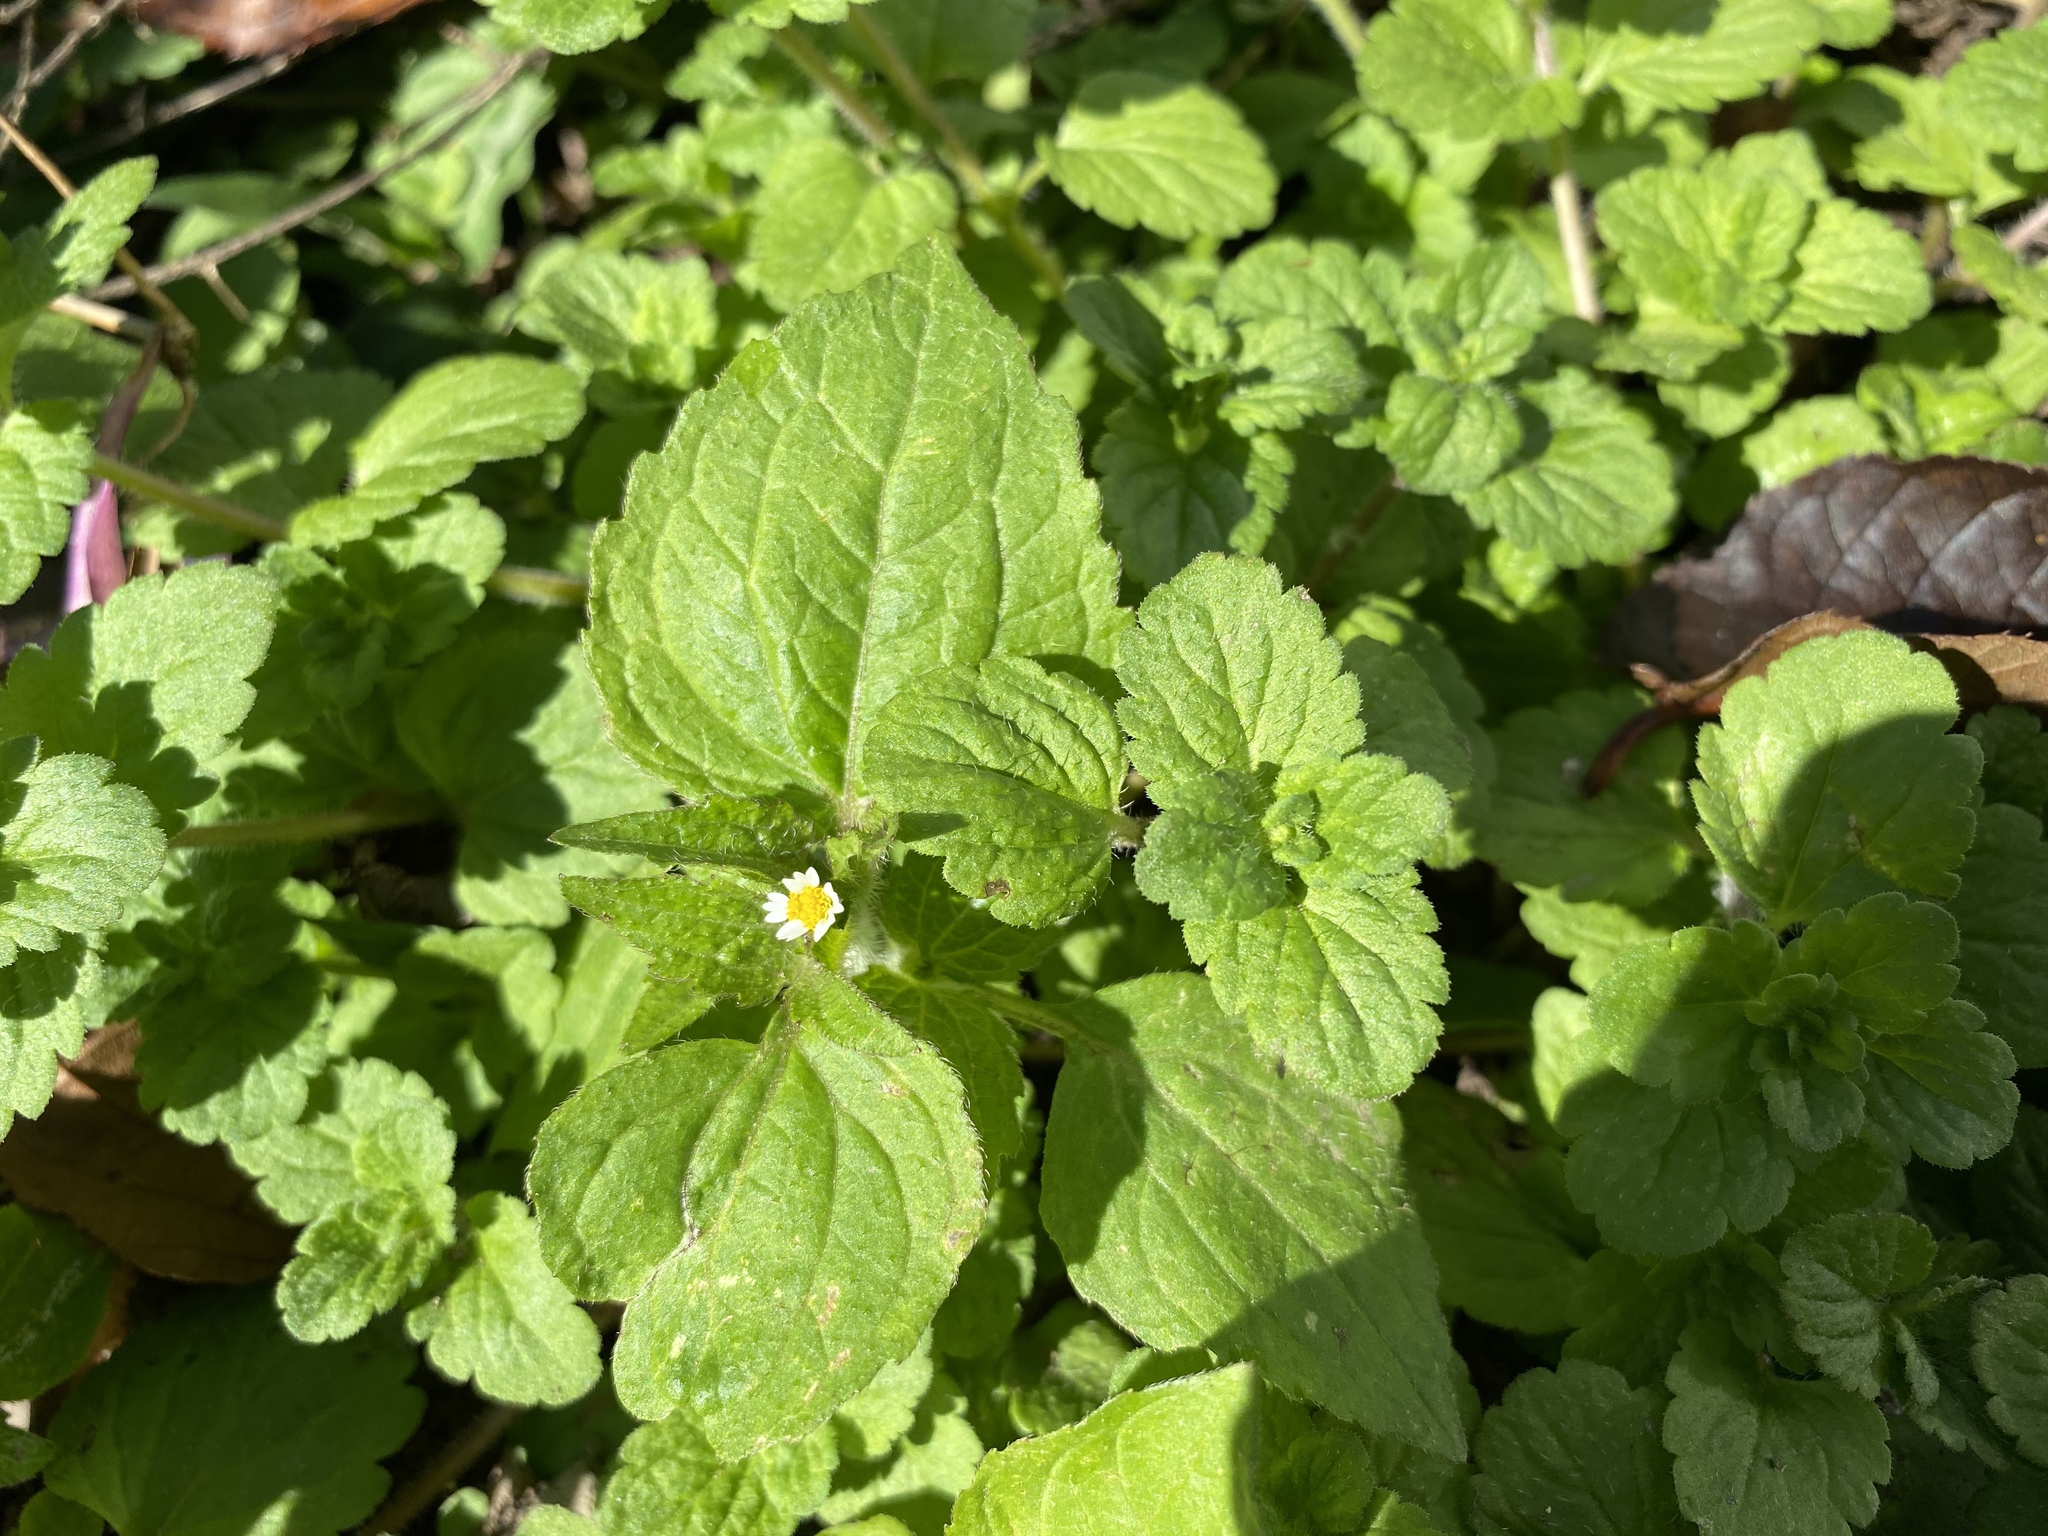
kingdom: Plantae
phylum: Tracheophyta
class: Magnoliopsida
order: Asterales
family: Asteraceae
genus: Galinsoga
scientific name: Galinsoga quadriradiata
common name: Shaggy soldier
